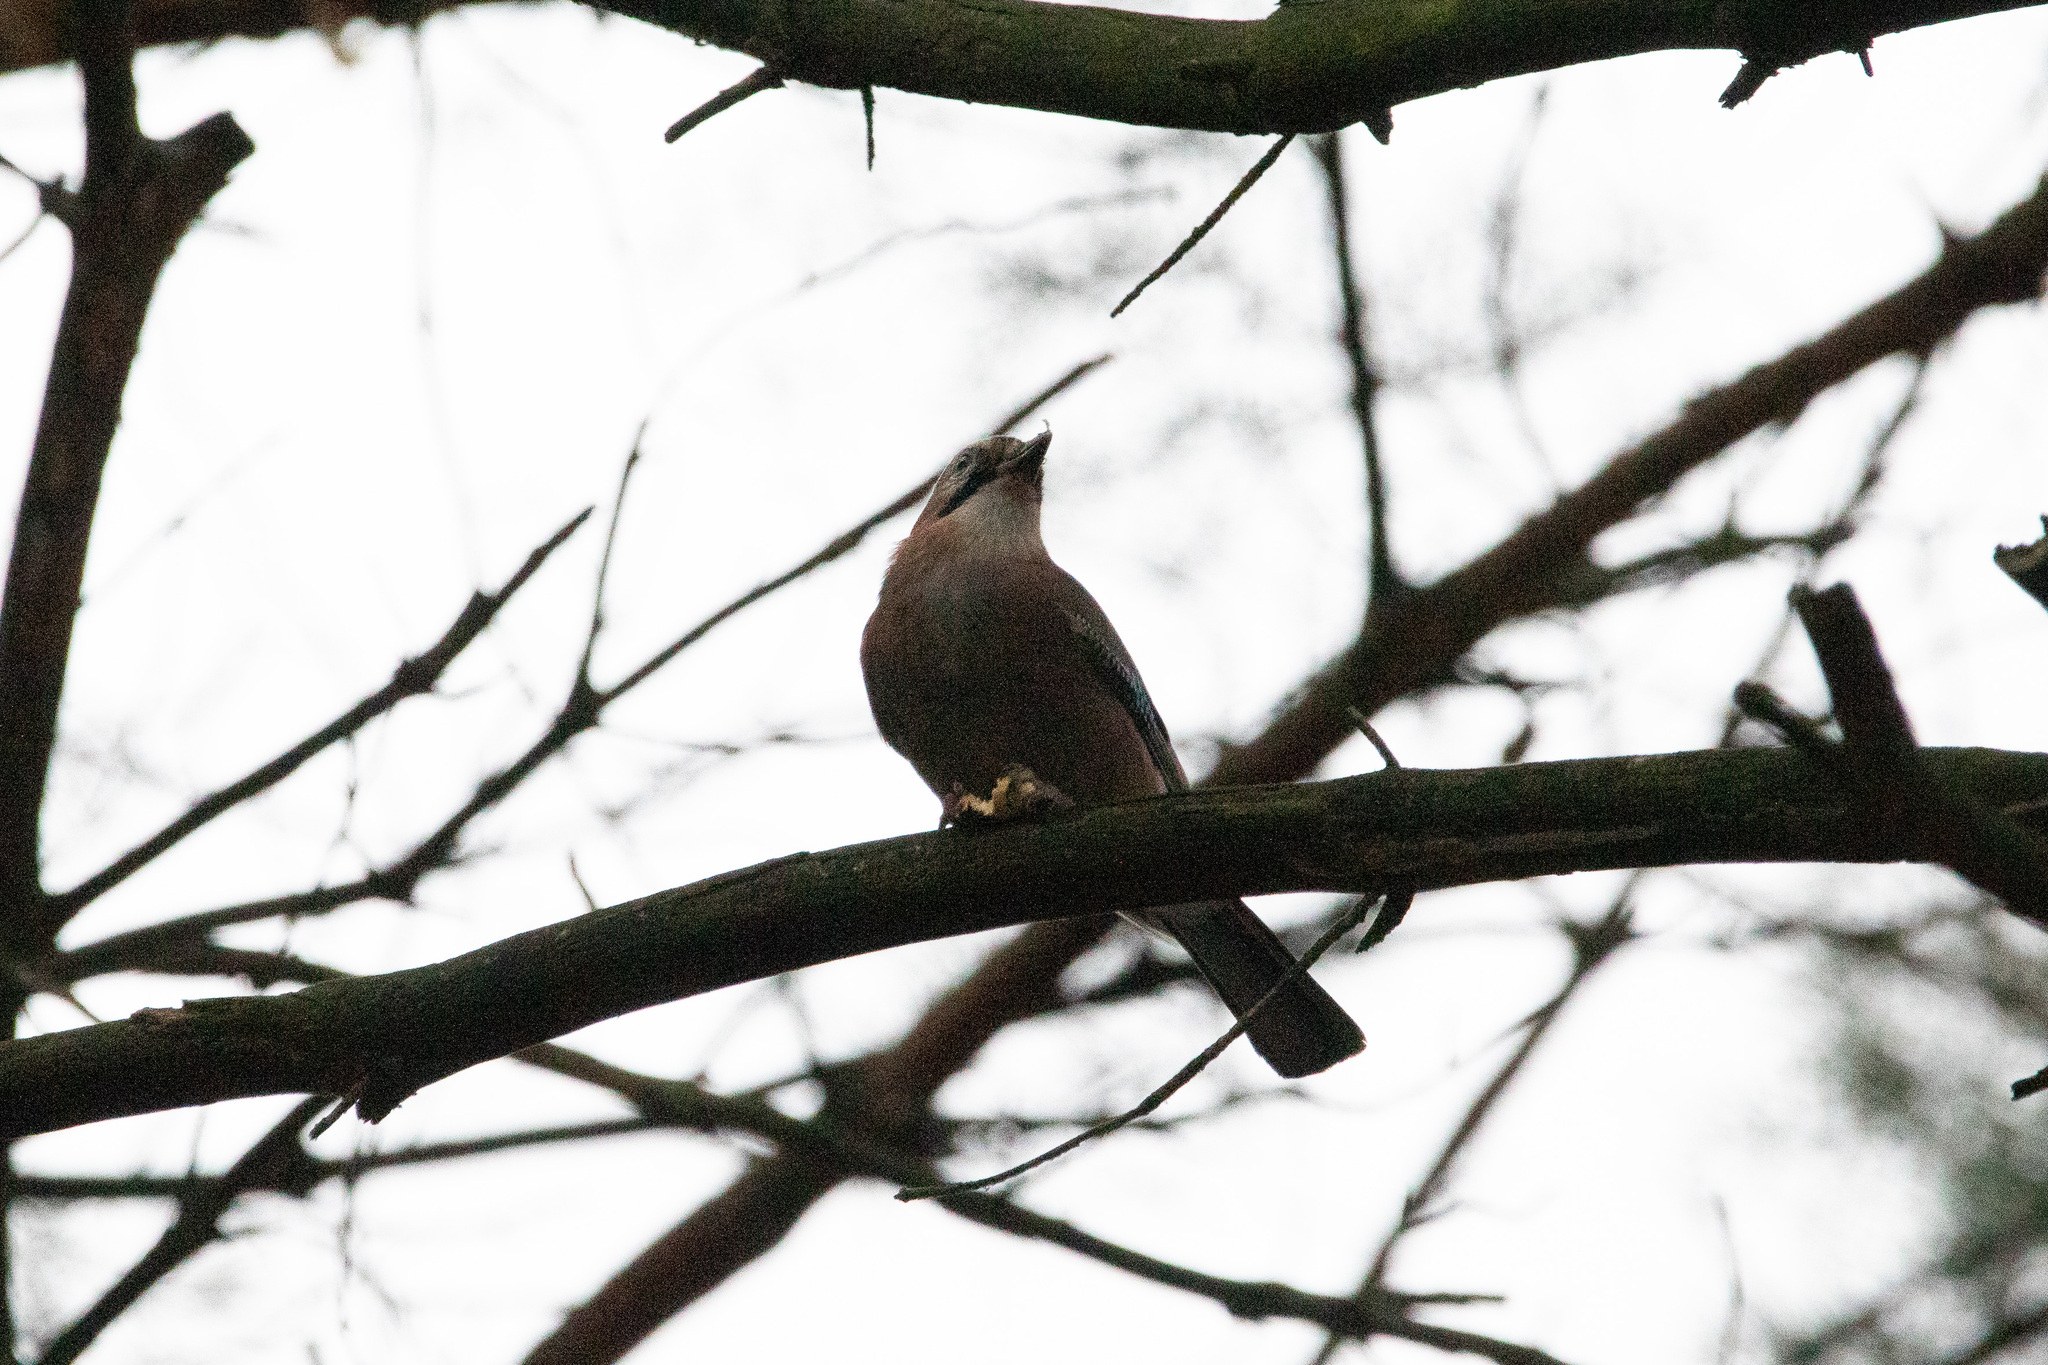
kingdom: Animalia
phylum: Chordata
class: Aves
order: Passeriformes
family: Corvidae
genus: Garrulus
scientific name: Garrulus glandarius
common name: Eurasian jay
